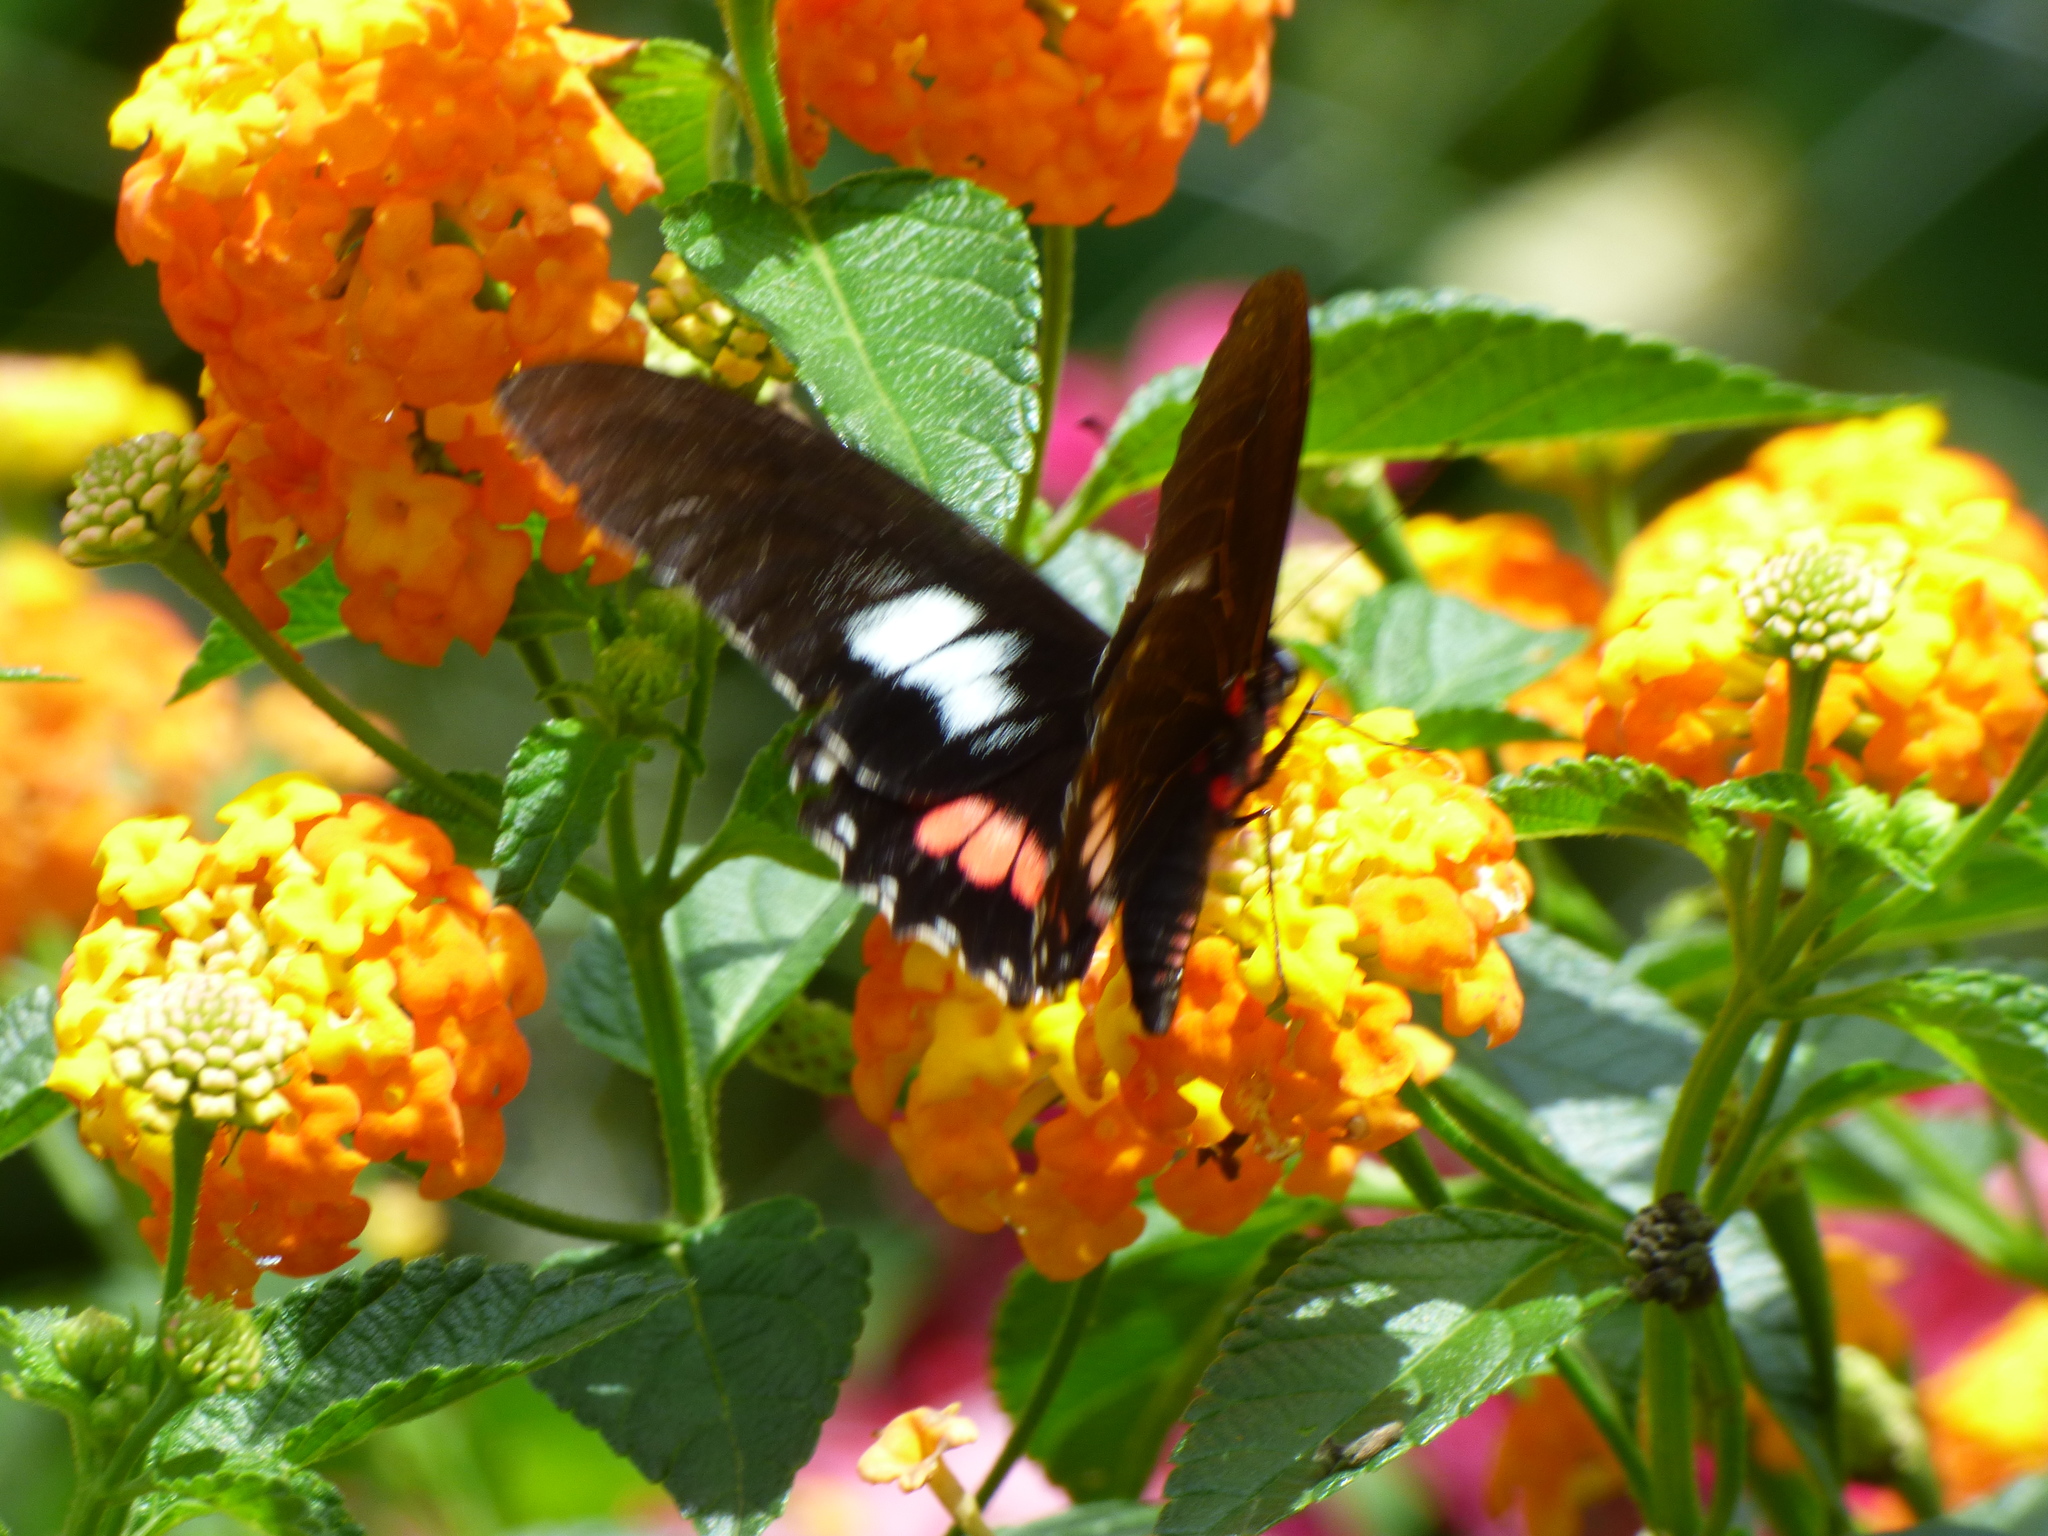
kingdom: Animalia
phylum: Arthropoda
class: Insecta
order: Lepidoptera
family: Papilionidae
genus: Mimoides
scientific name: Mimoides euryleon
